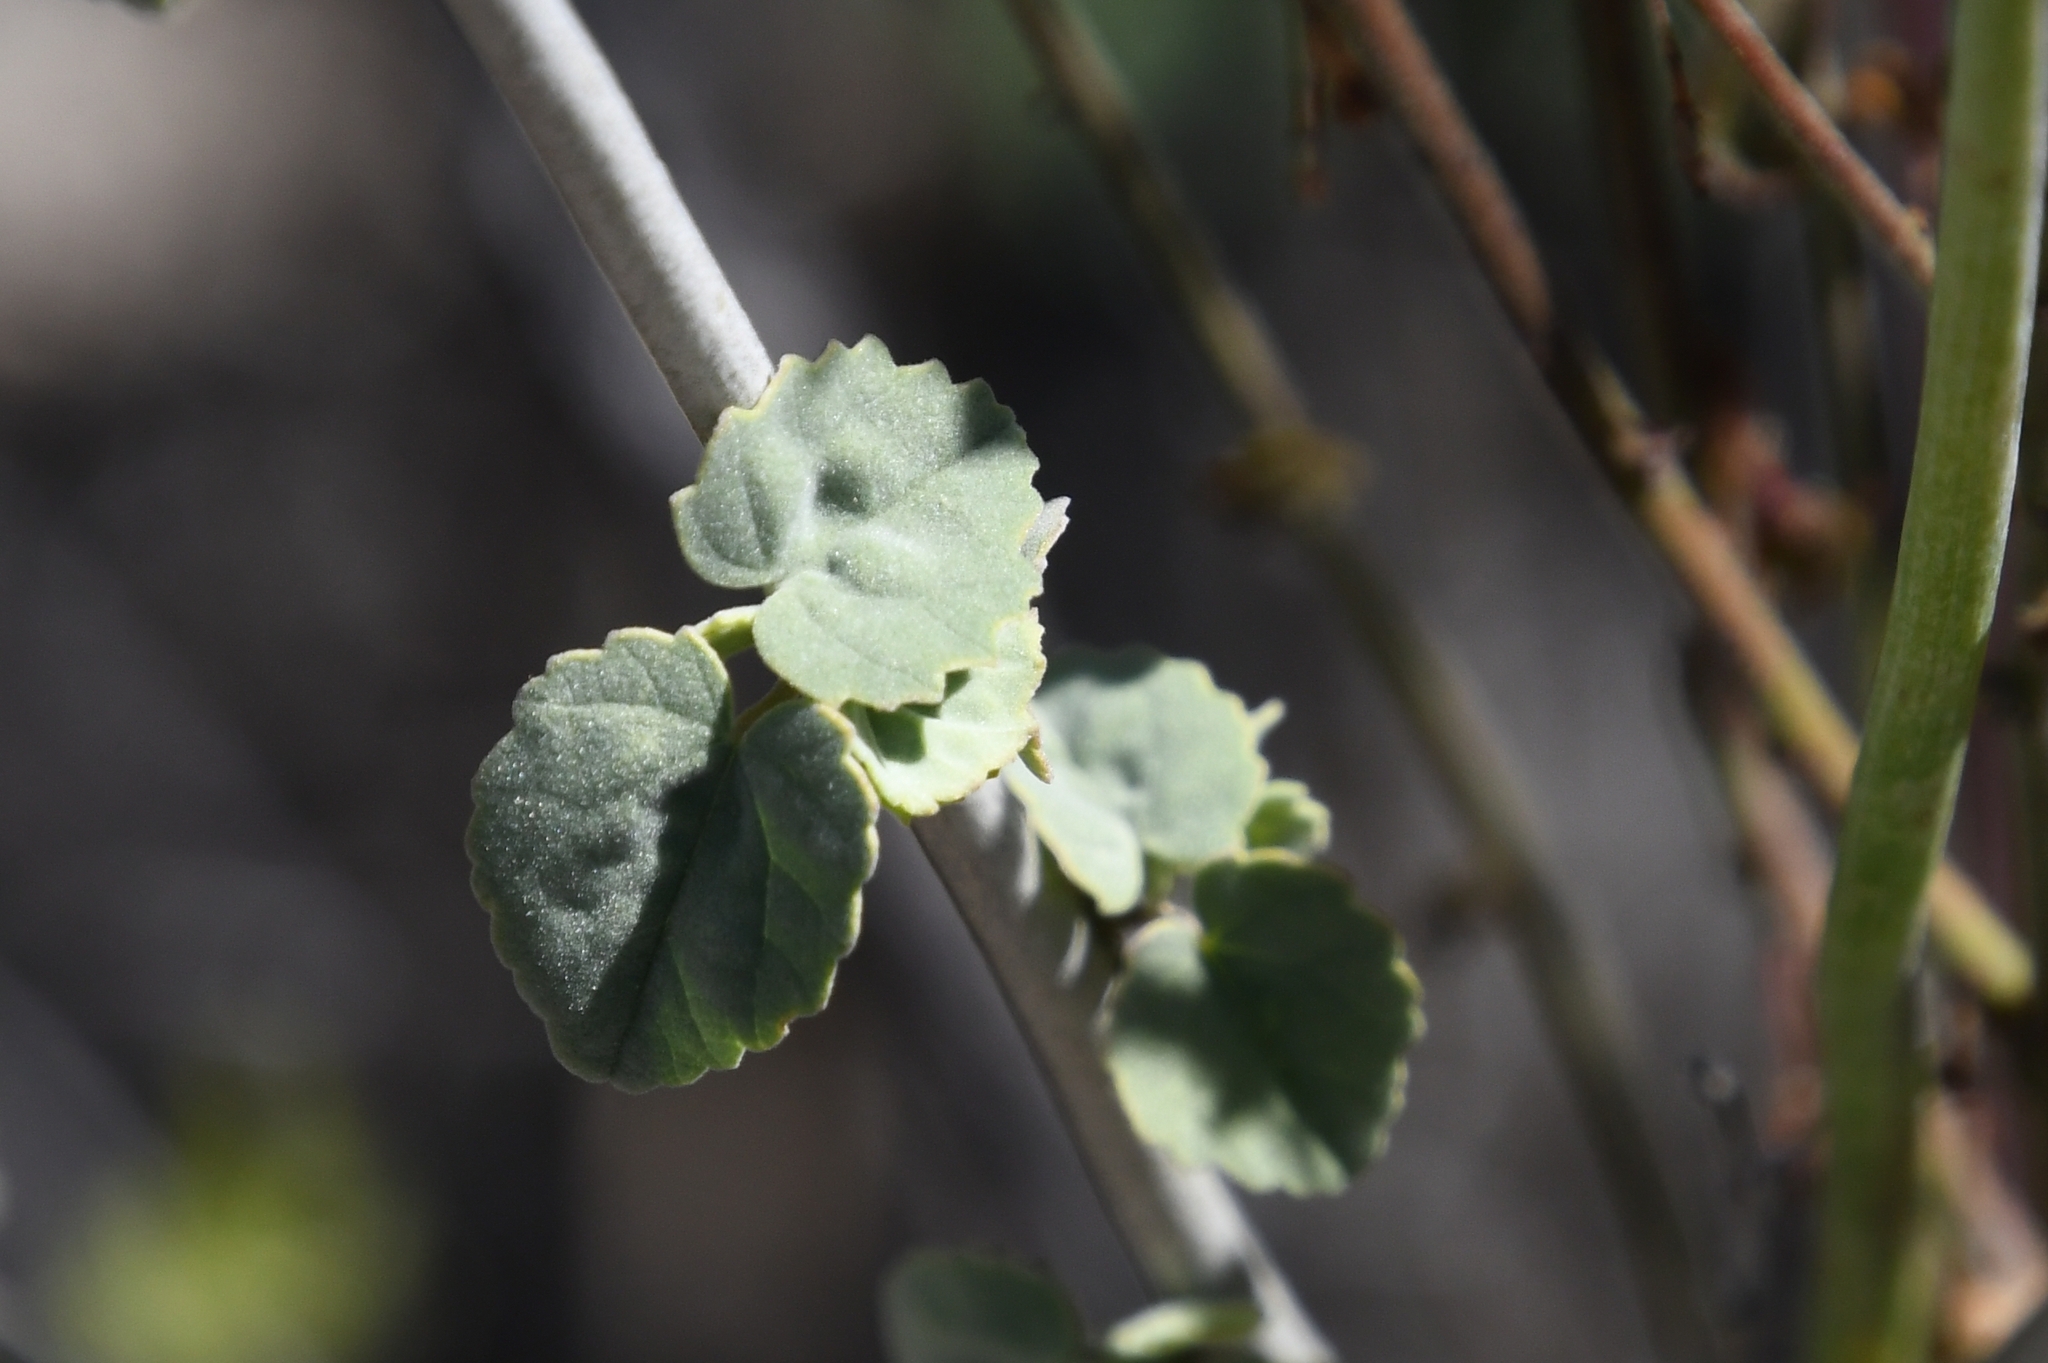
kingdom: Plantae
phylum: Tracheophyta
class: Liliopsida
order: Asparagales
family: Asparagaceae
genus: Dipterostemon
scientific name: Dipterostemon capitatus
